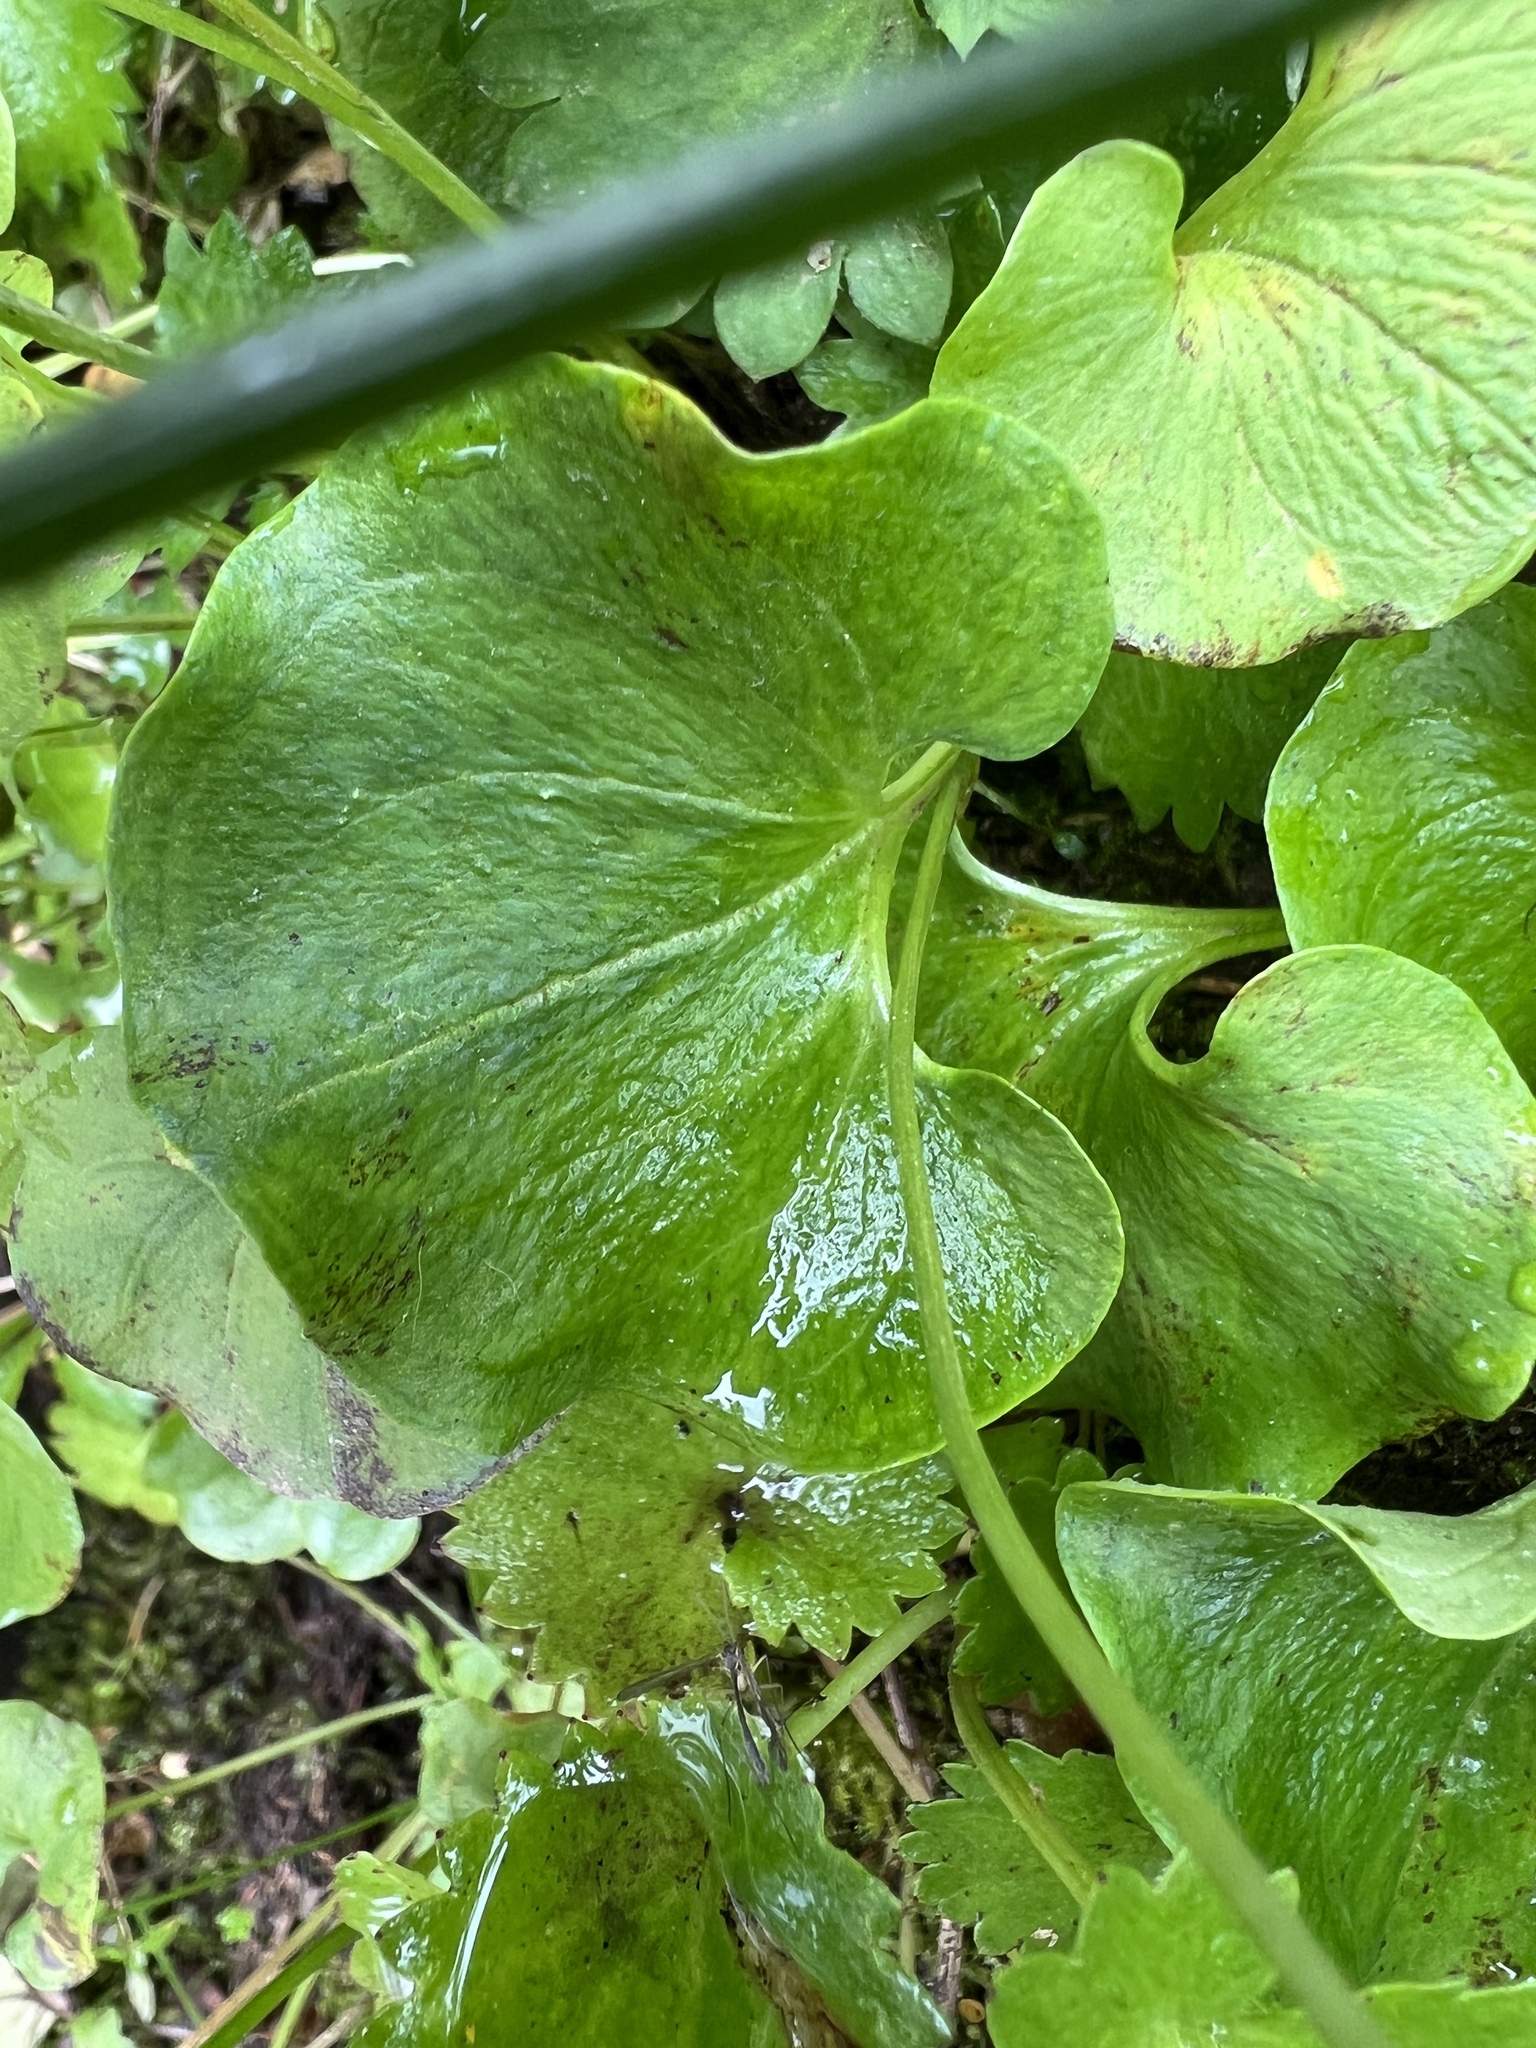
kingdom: Plantae
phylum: Tracheophyta
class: Magnoliopsida
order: Celastrales
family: Parnassiaceae
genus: Parnassia
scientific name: Parnassia fimbriata
